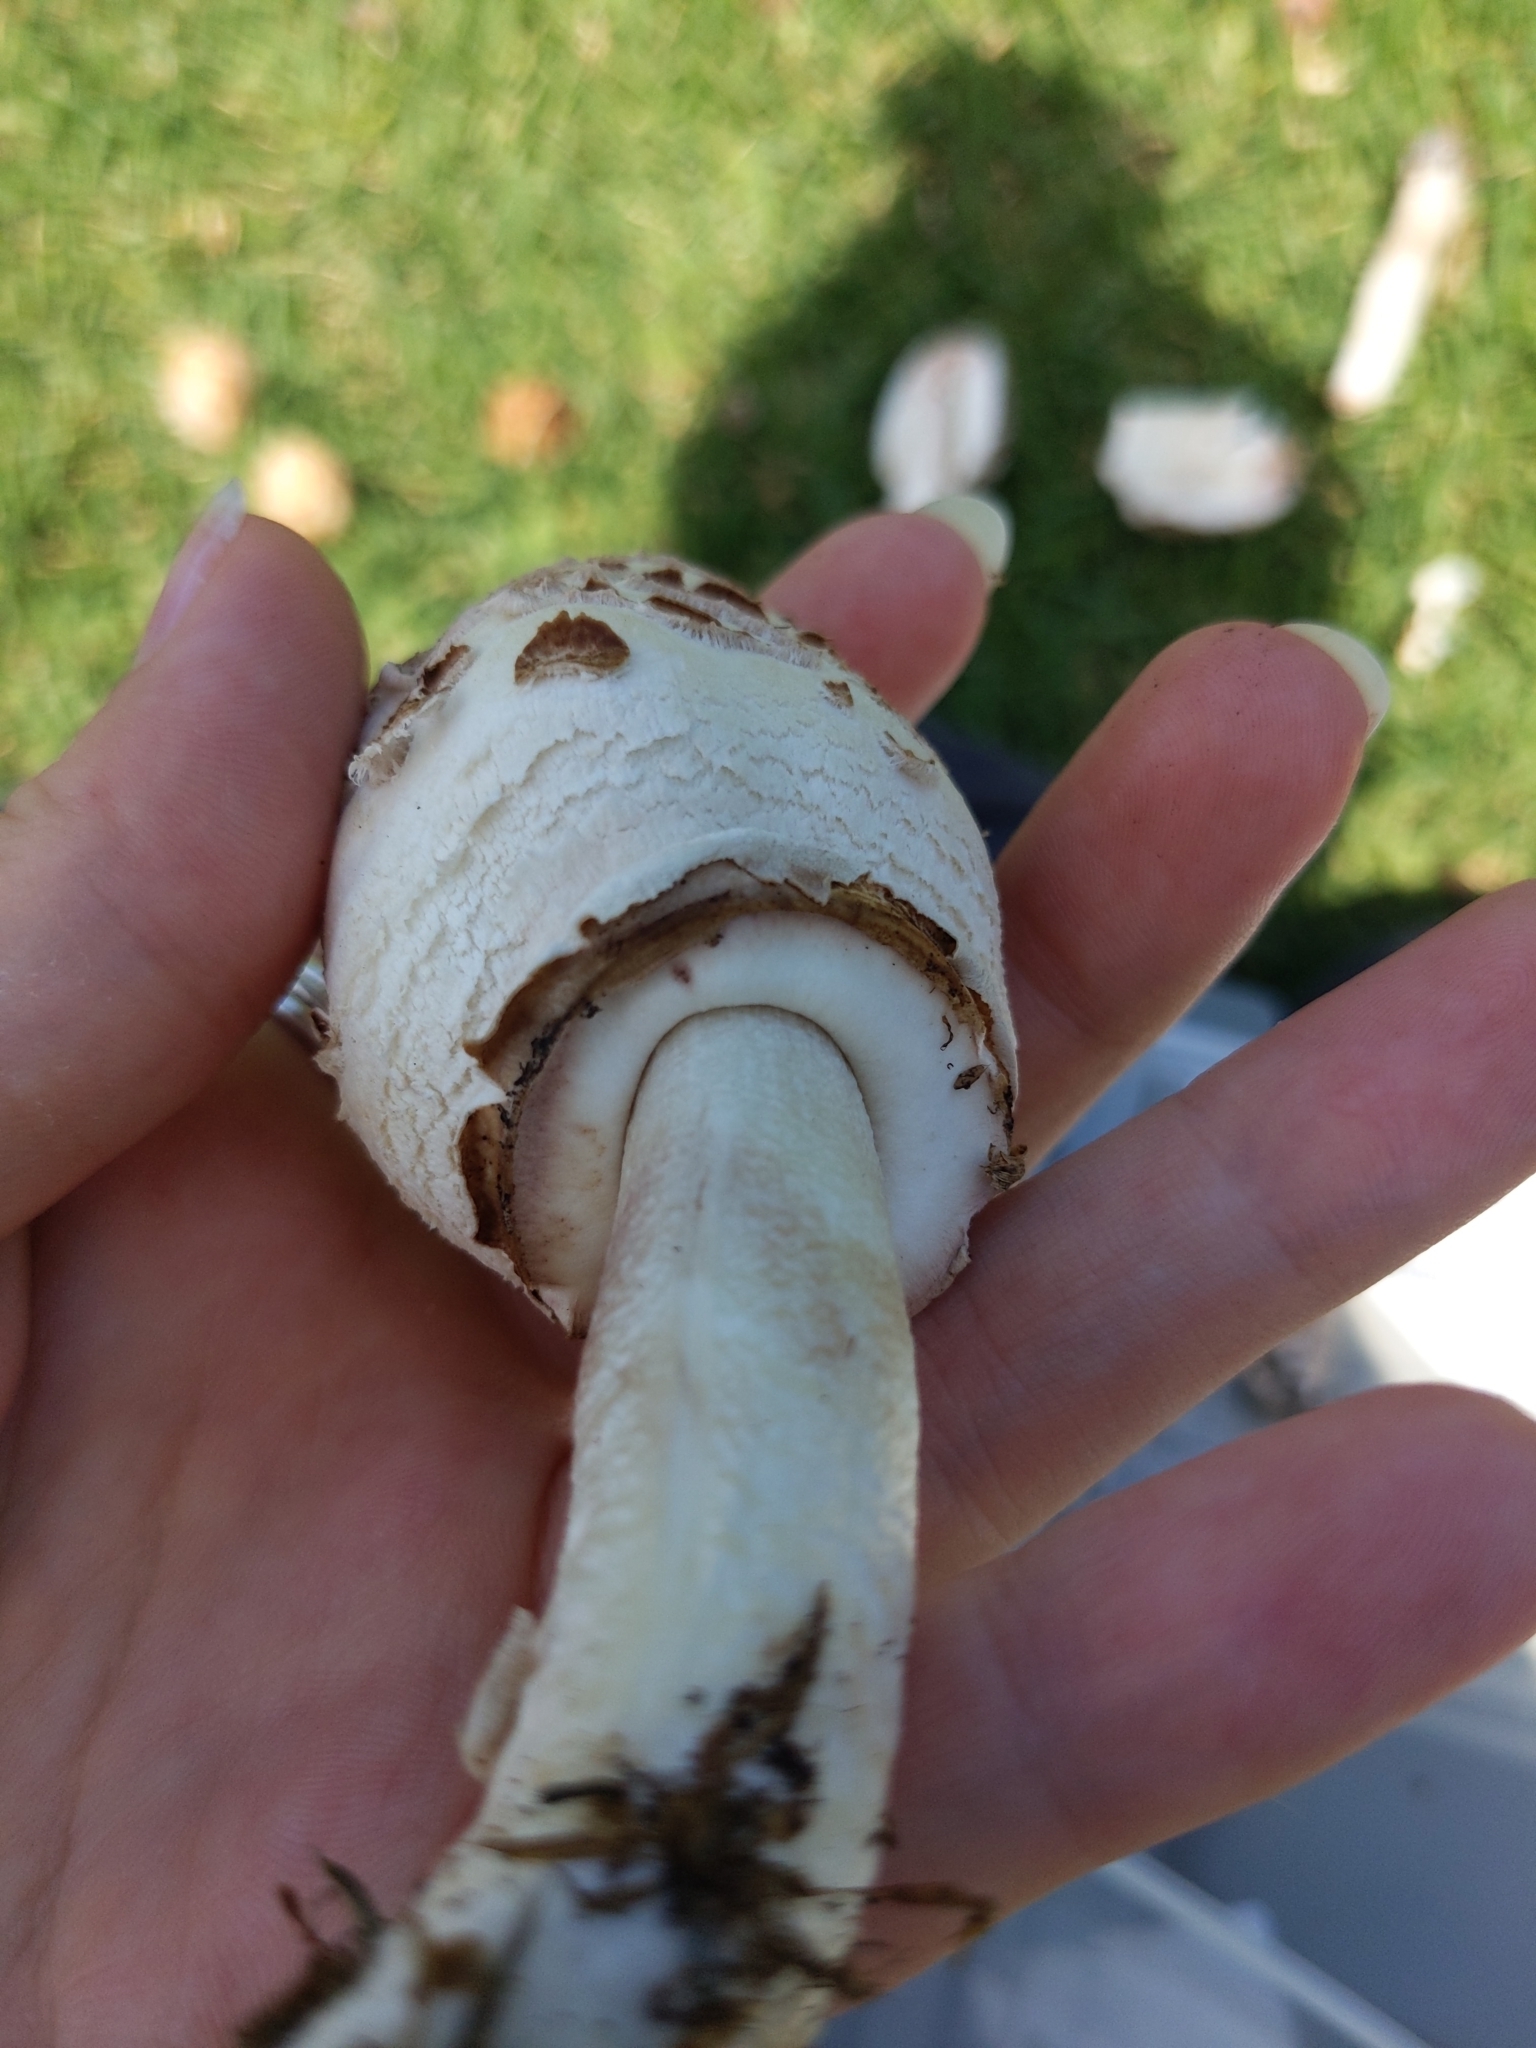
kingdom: Fungi
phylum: Basidiomycota
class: Agaricomycetes
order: Agaricales
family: Agaricaceae
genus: Chlorophyllum
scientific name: Chlorophyllum molybdites
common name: False parasol
